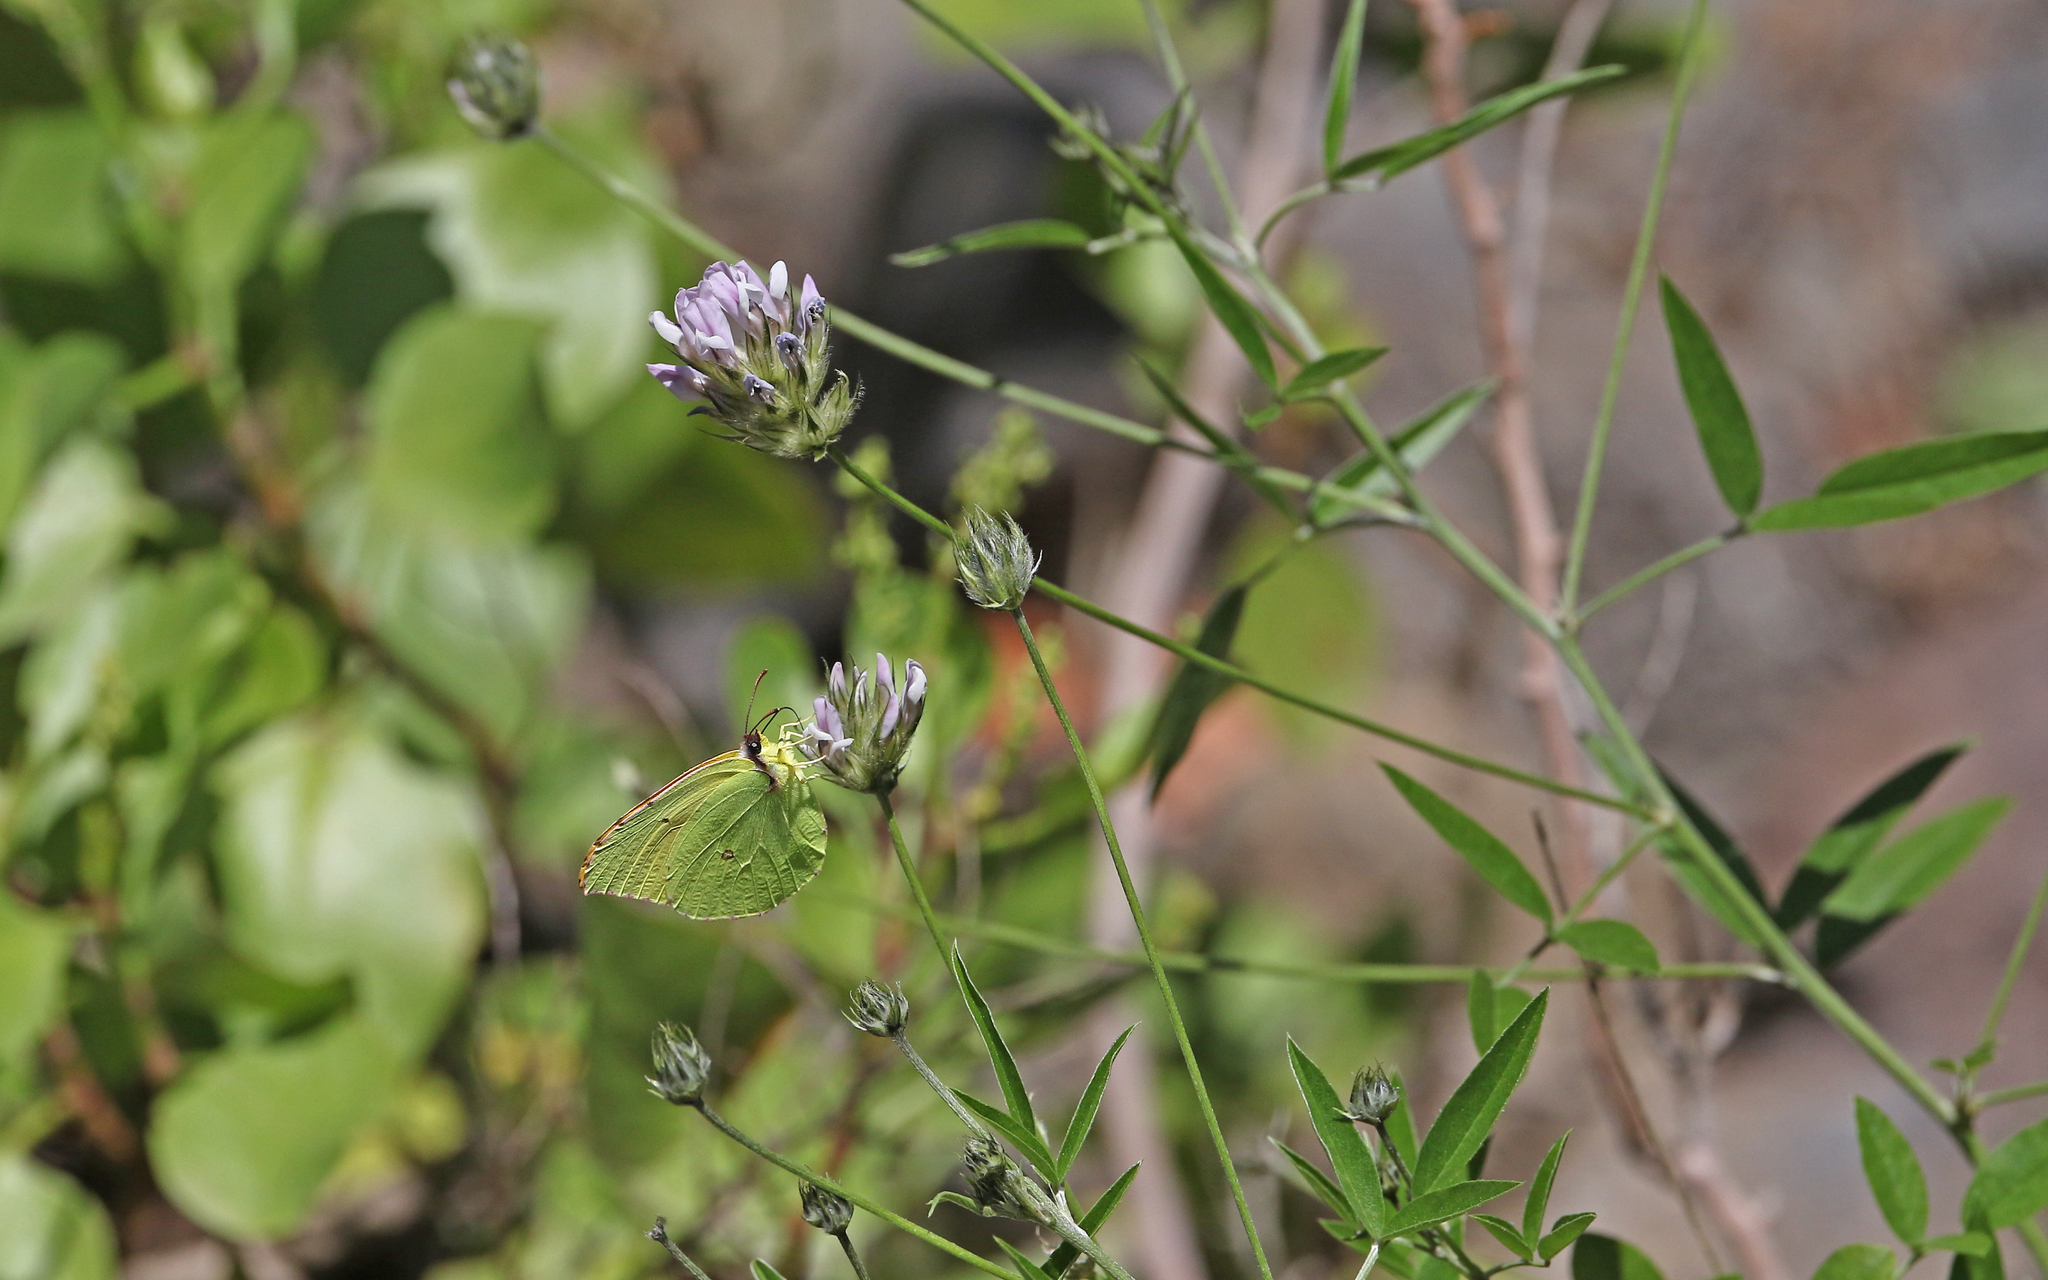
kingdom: Animalia
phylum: Arthropoda
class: Insecta
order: Lepidoptera
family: Pieridae
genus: Gonepteryx
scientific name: Gonepteryx cleobule
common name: Canary brimstone
